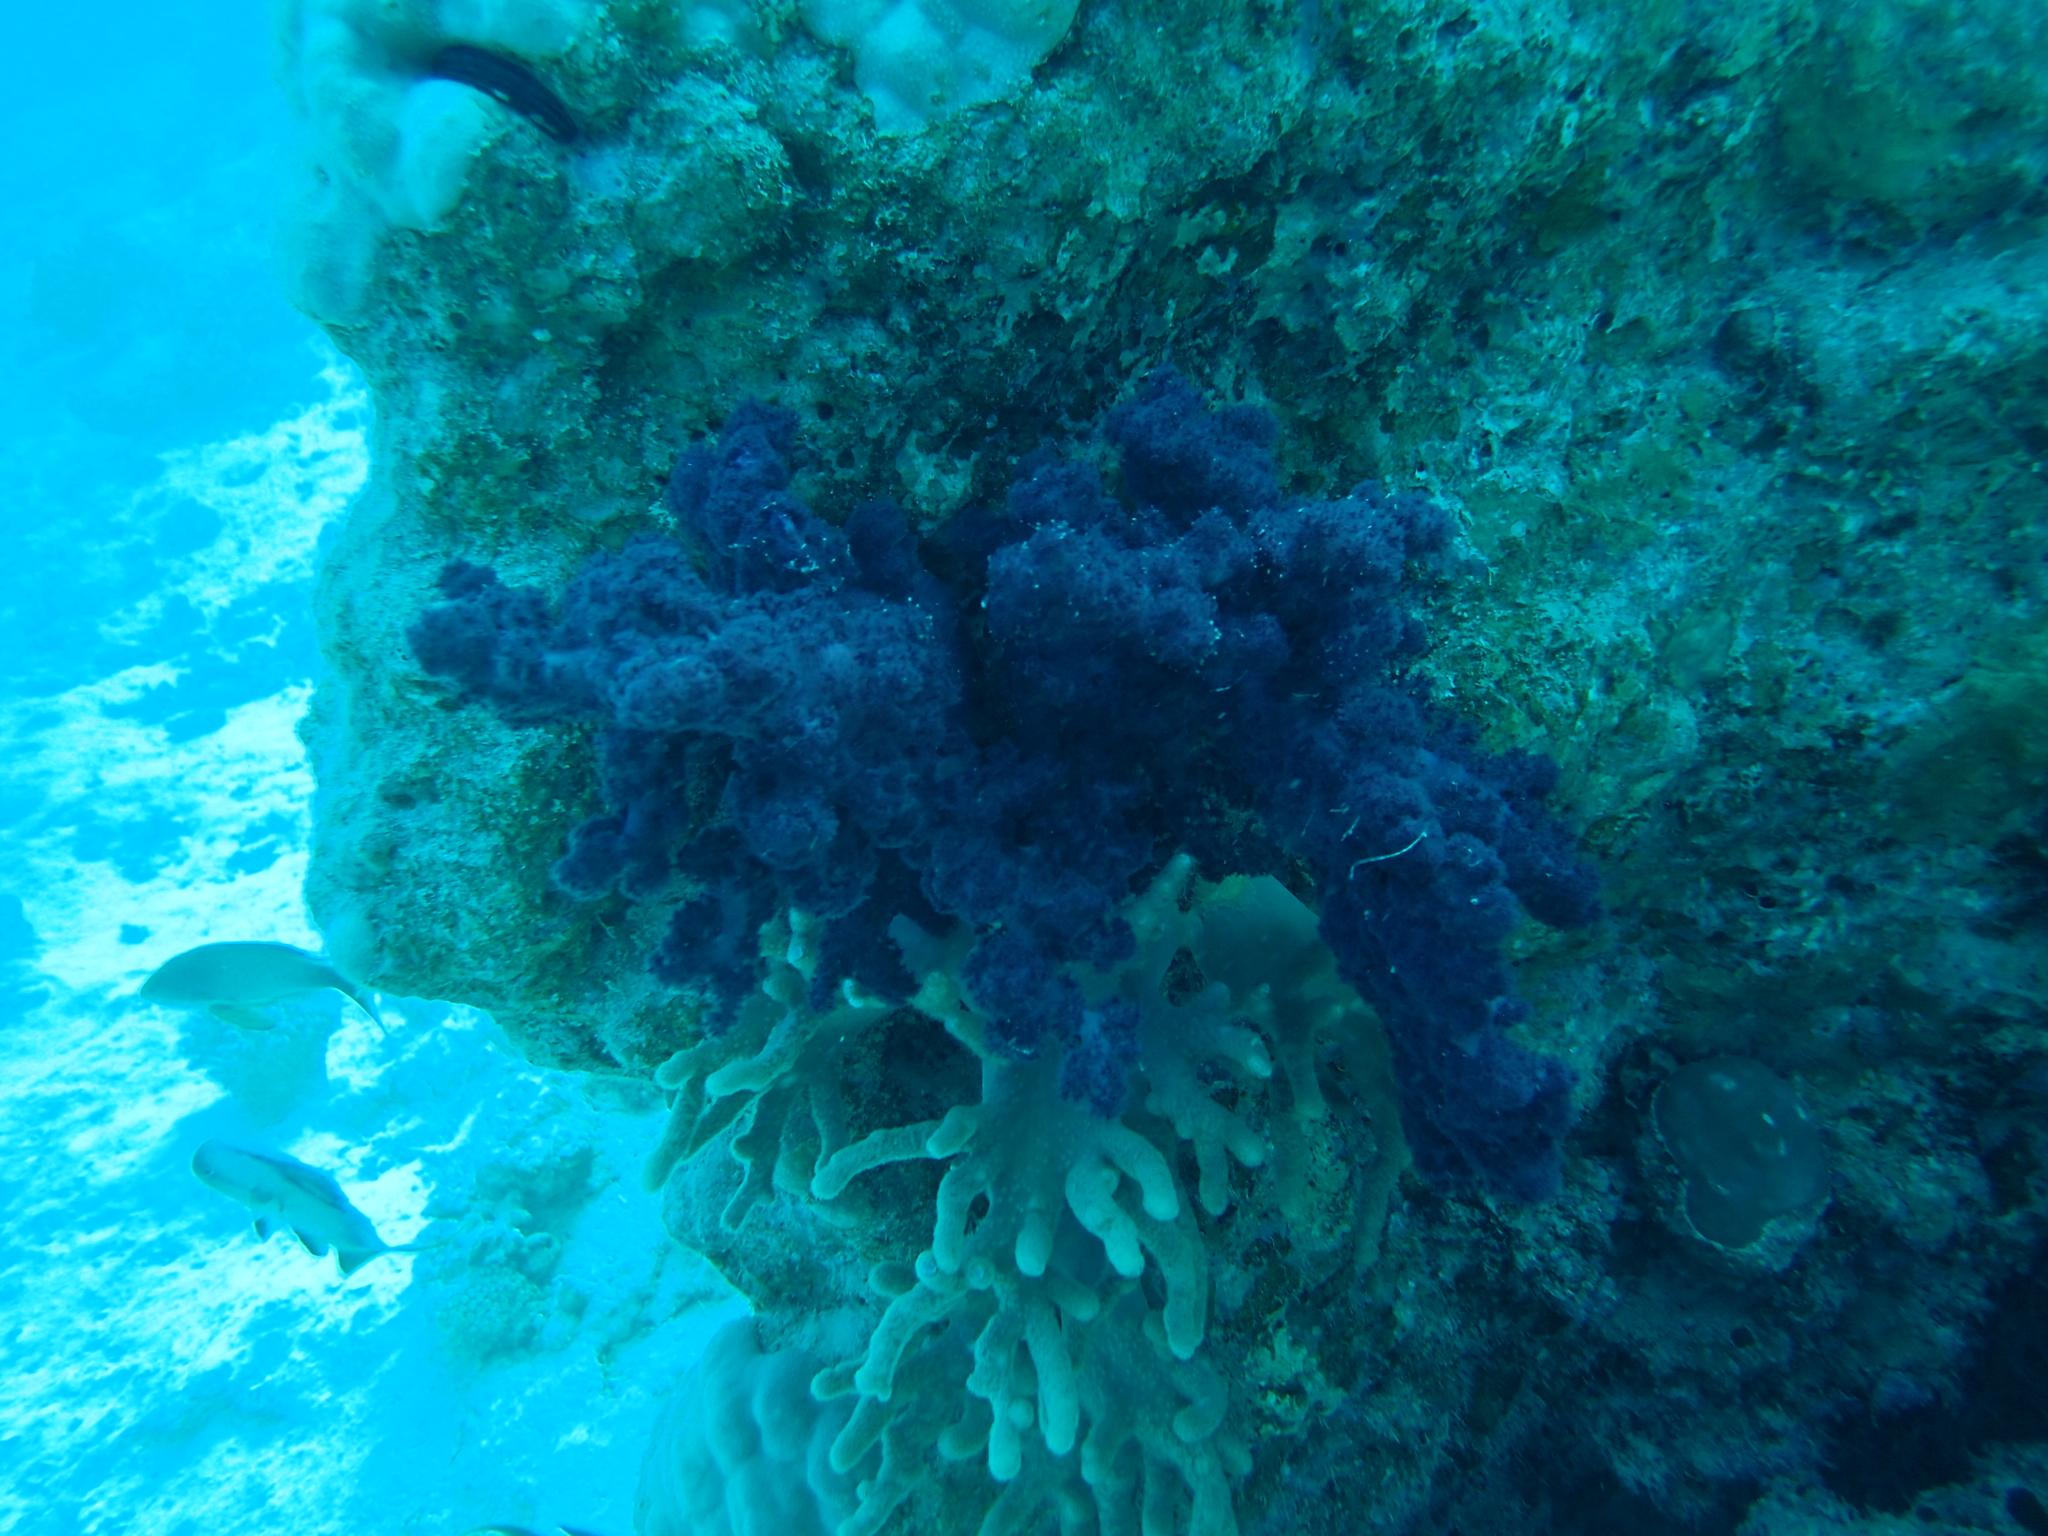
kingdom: Animalia
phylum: Cnidaria
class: Anthozoa
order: Malacalcyonacea
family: Nephtheidae
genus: Dendronephthya
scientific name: Dendronephthya hemprichi
